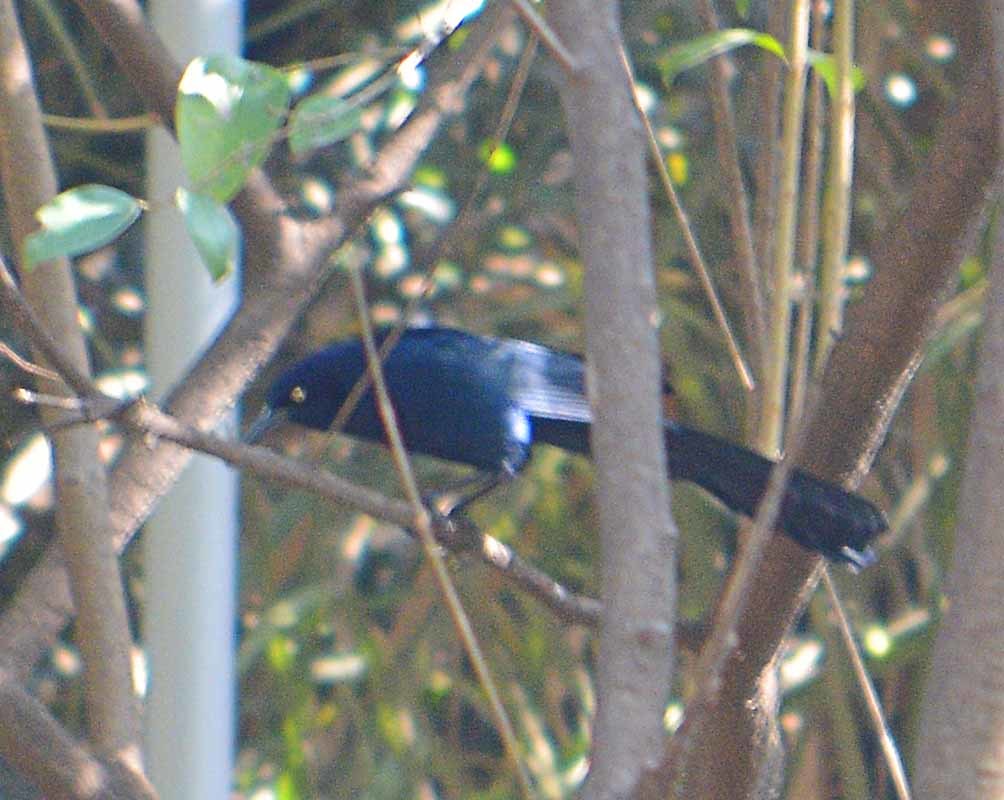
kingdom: Animalia
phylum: Chordata
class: Aves
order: Passeriformes
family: Icteridae
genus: Quiscalus
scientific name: Quiscalus mexicanus
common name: Great-tailed grackle
